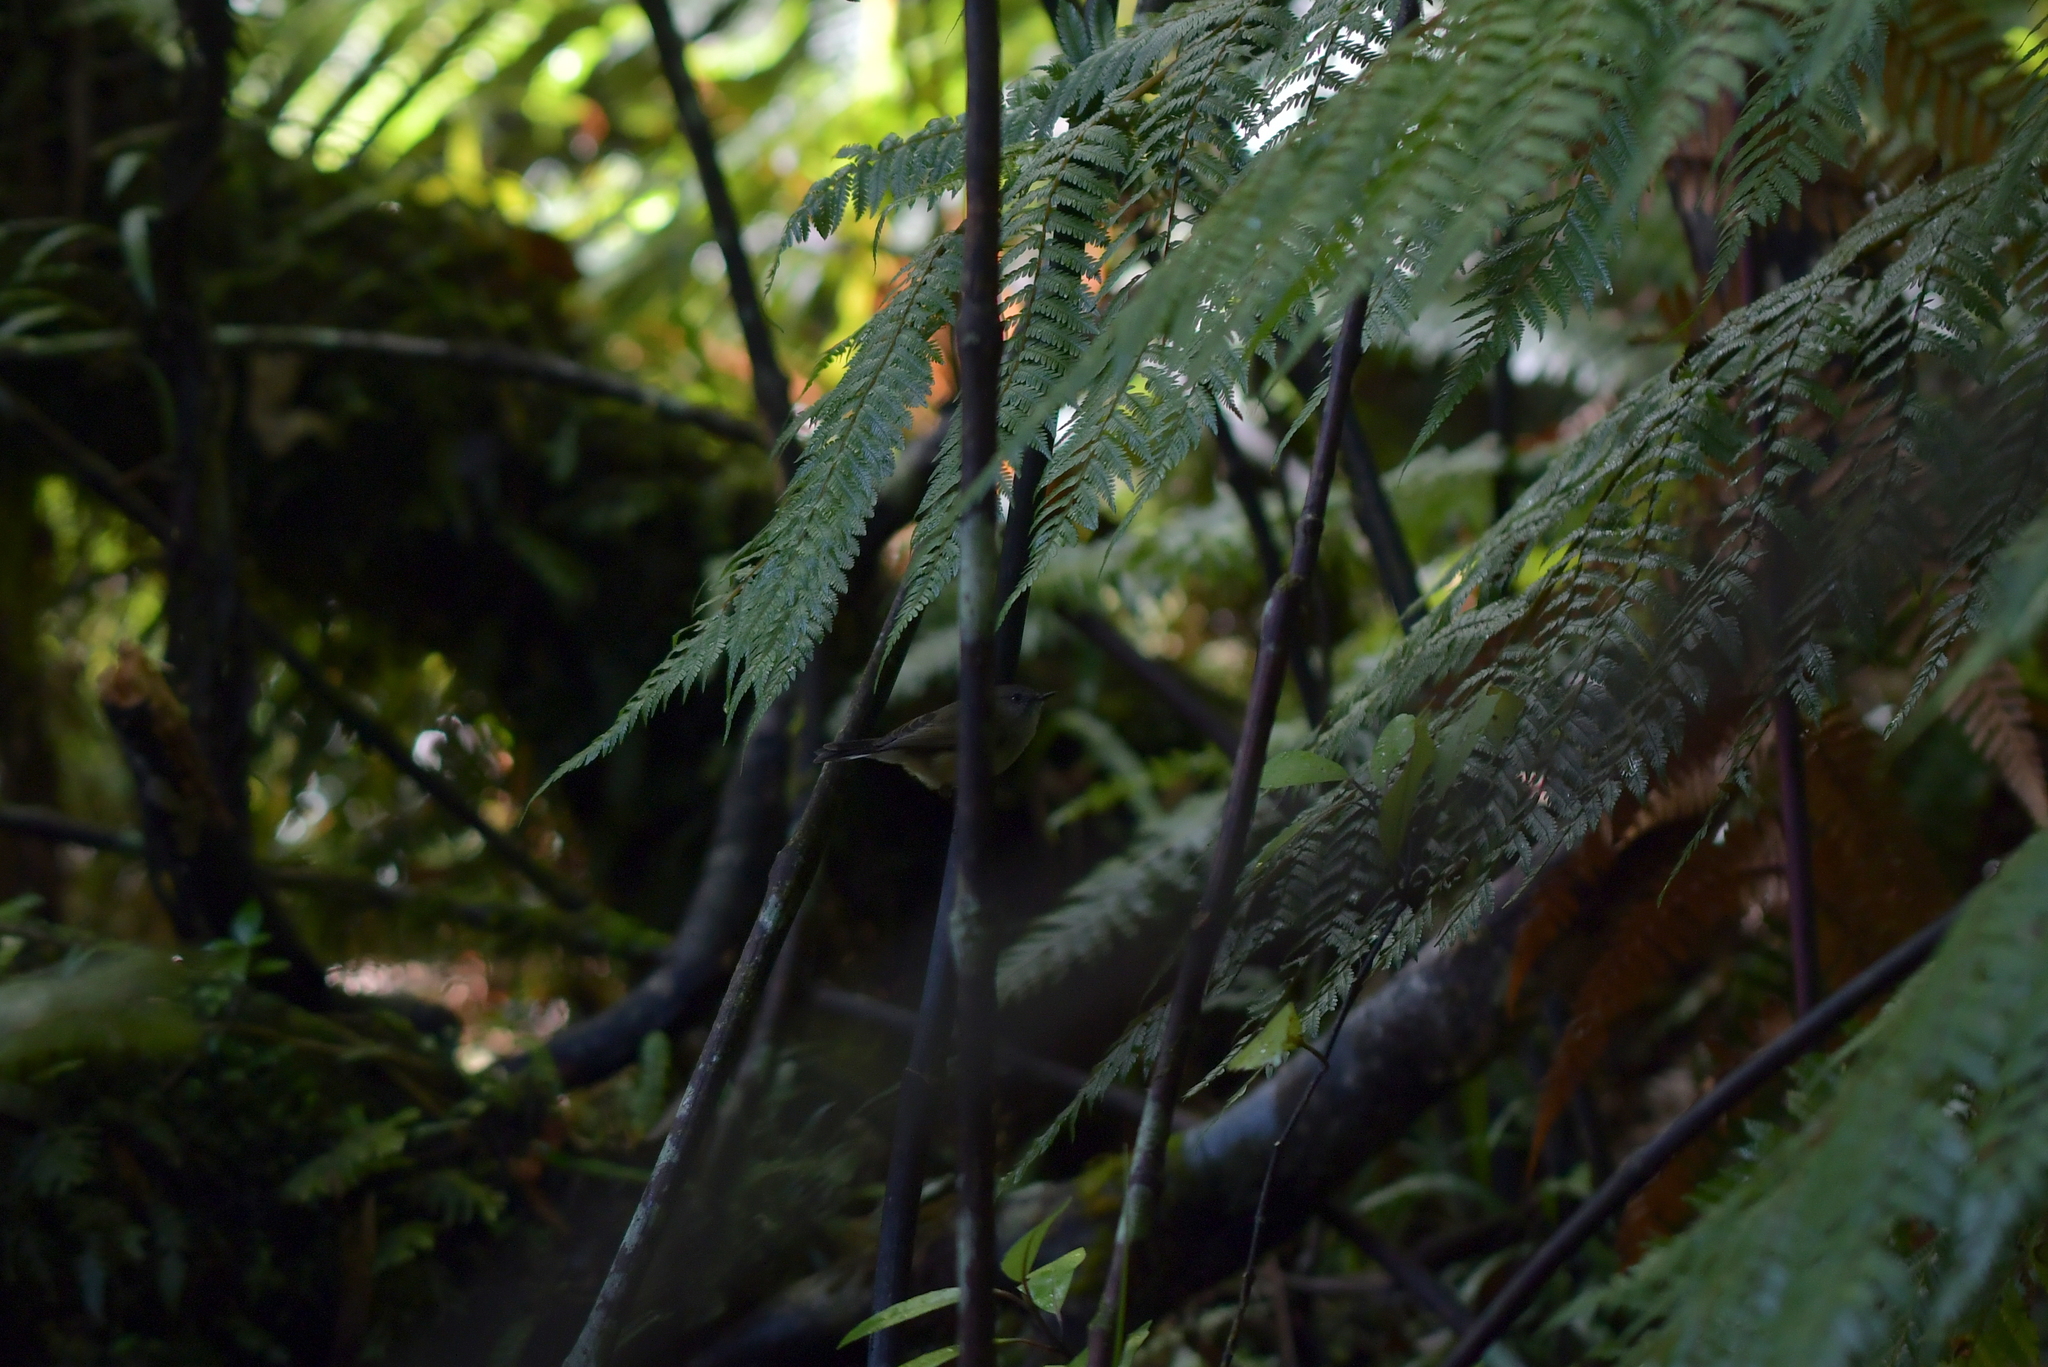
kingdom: Animalia
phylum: Chordata
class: Aves
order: Passeriformes
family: Acanthizidae
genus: Gerygone
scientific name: Gerygone igata
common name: Grey gerygone
